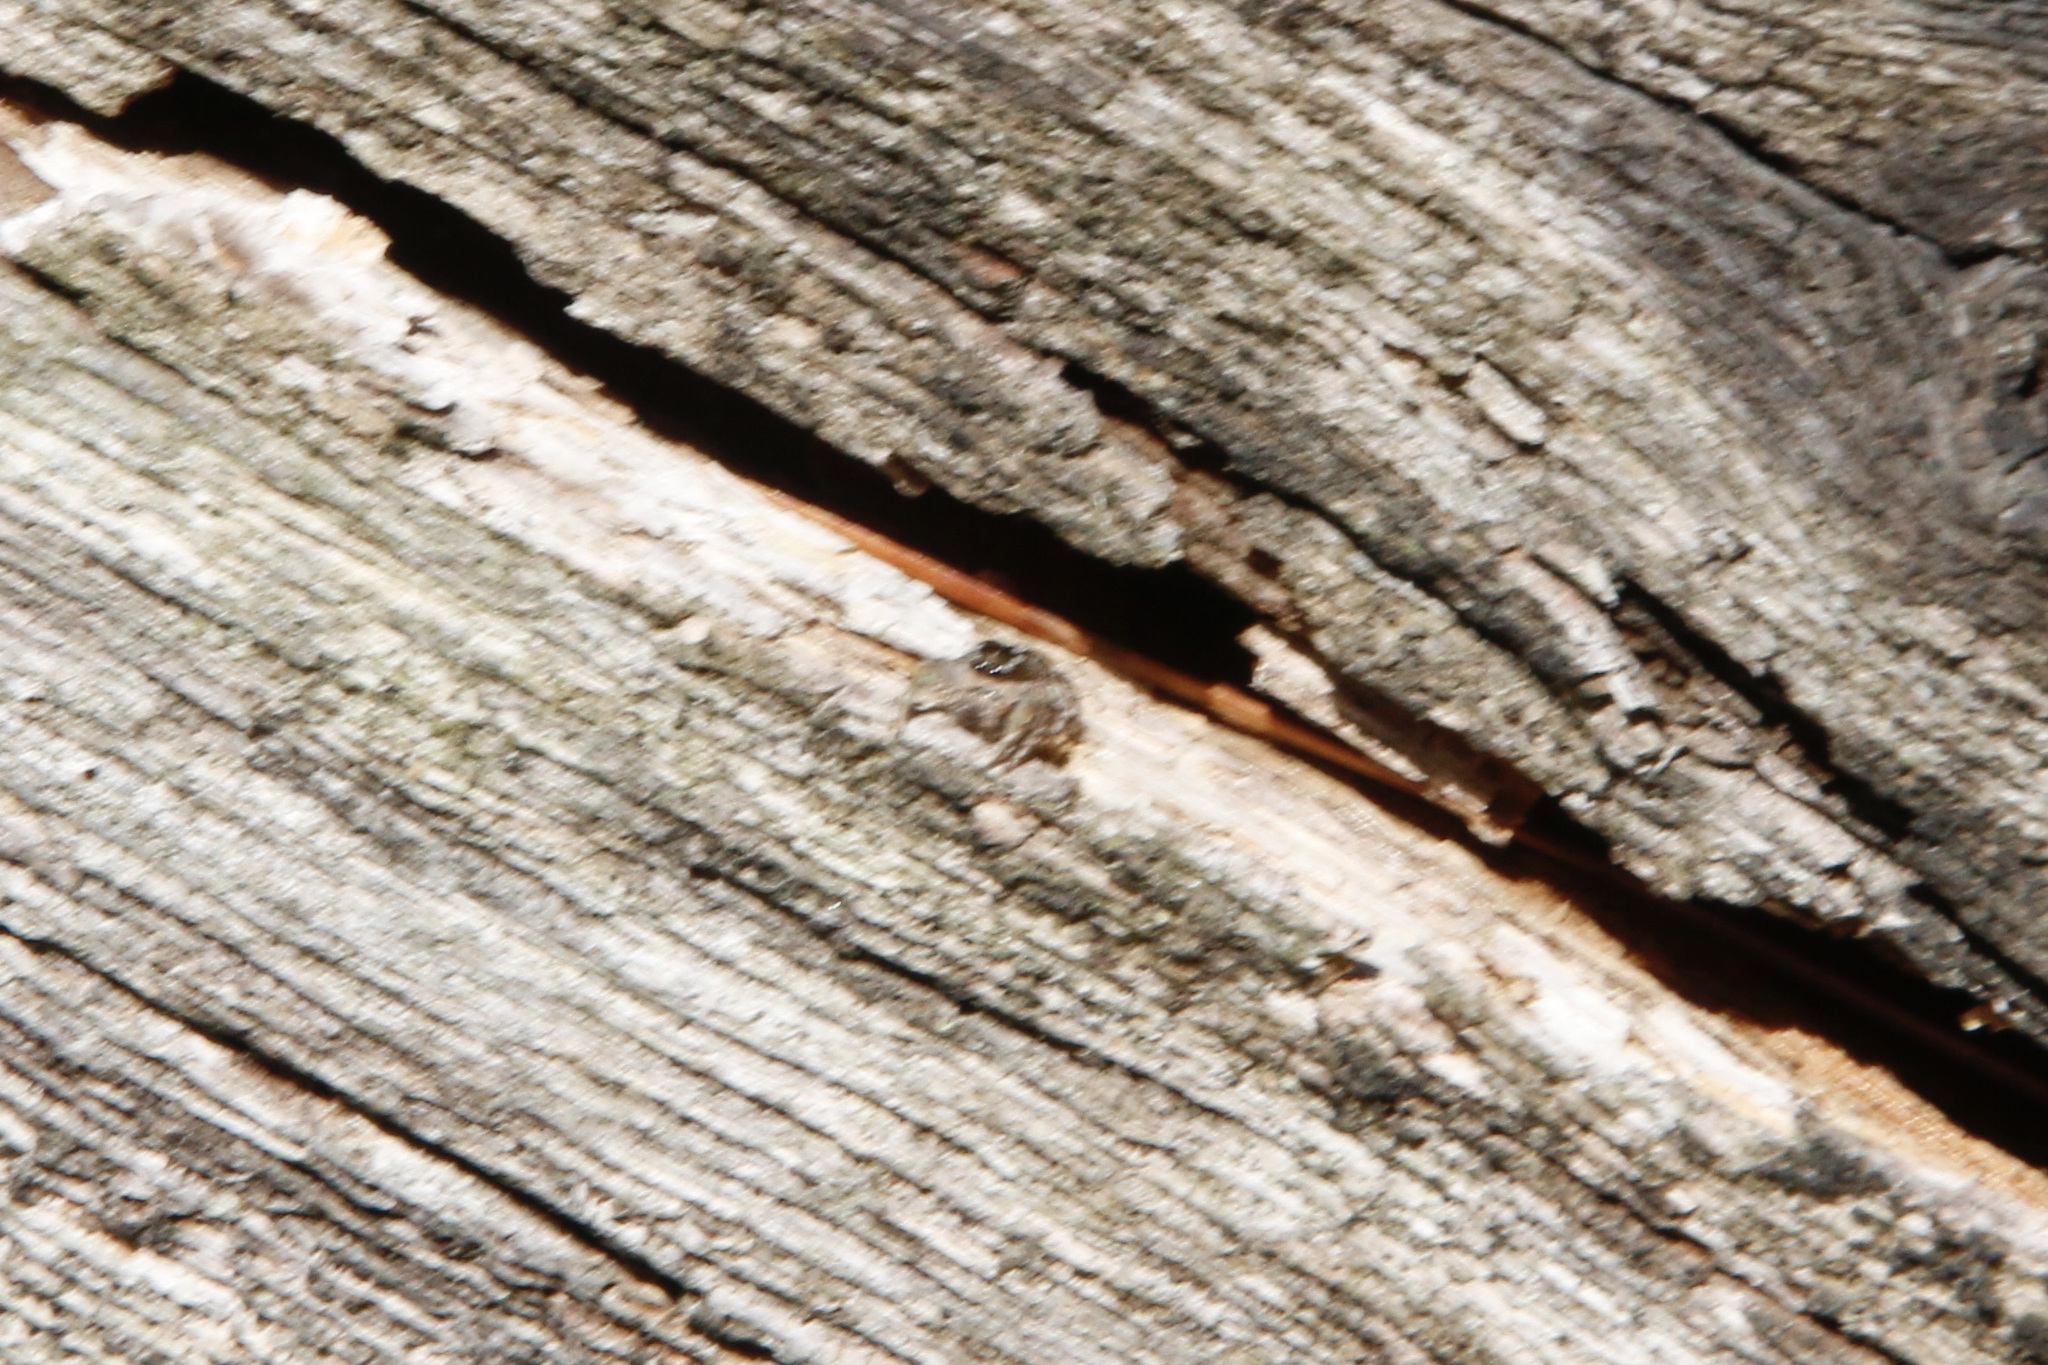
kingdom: Animalia
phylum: Arthropoda
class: Arachnida
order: Araneae
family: Salticidae
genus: Habronattus
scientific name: Habronattus cognatus
